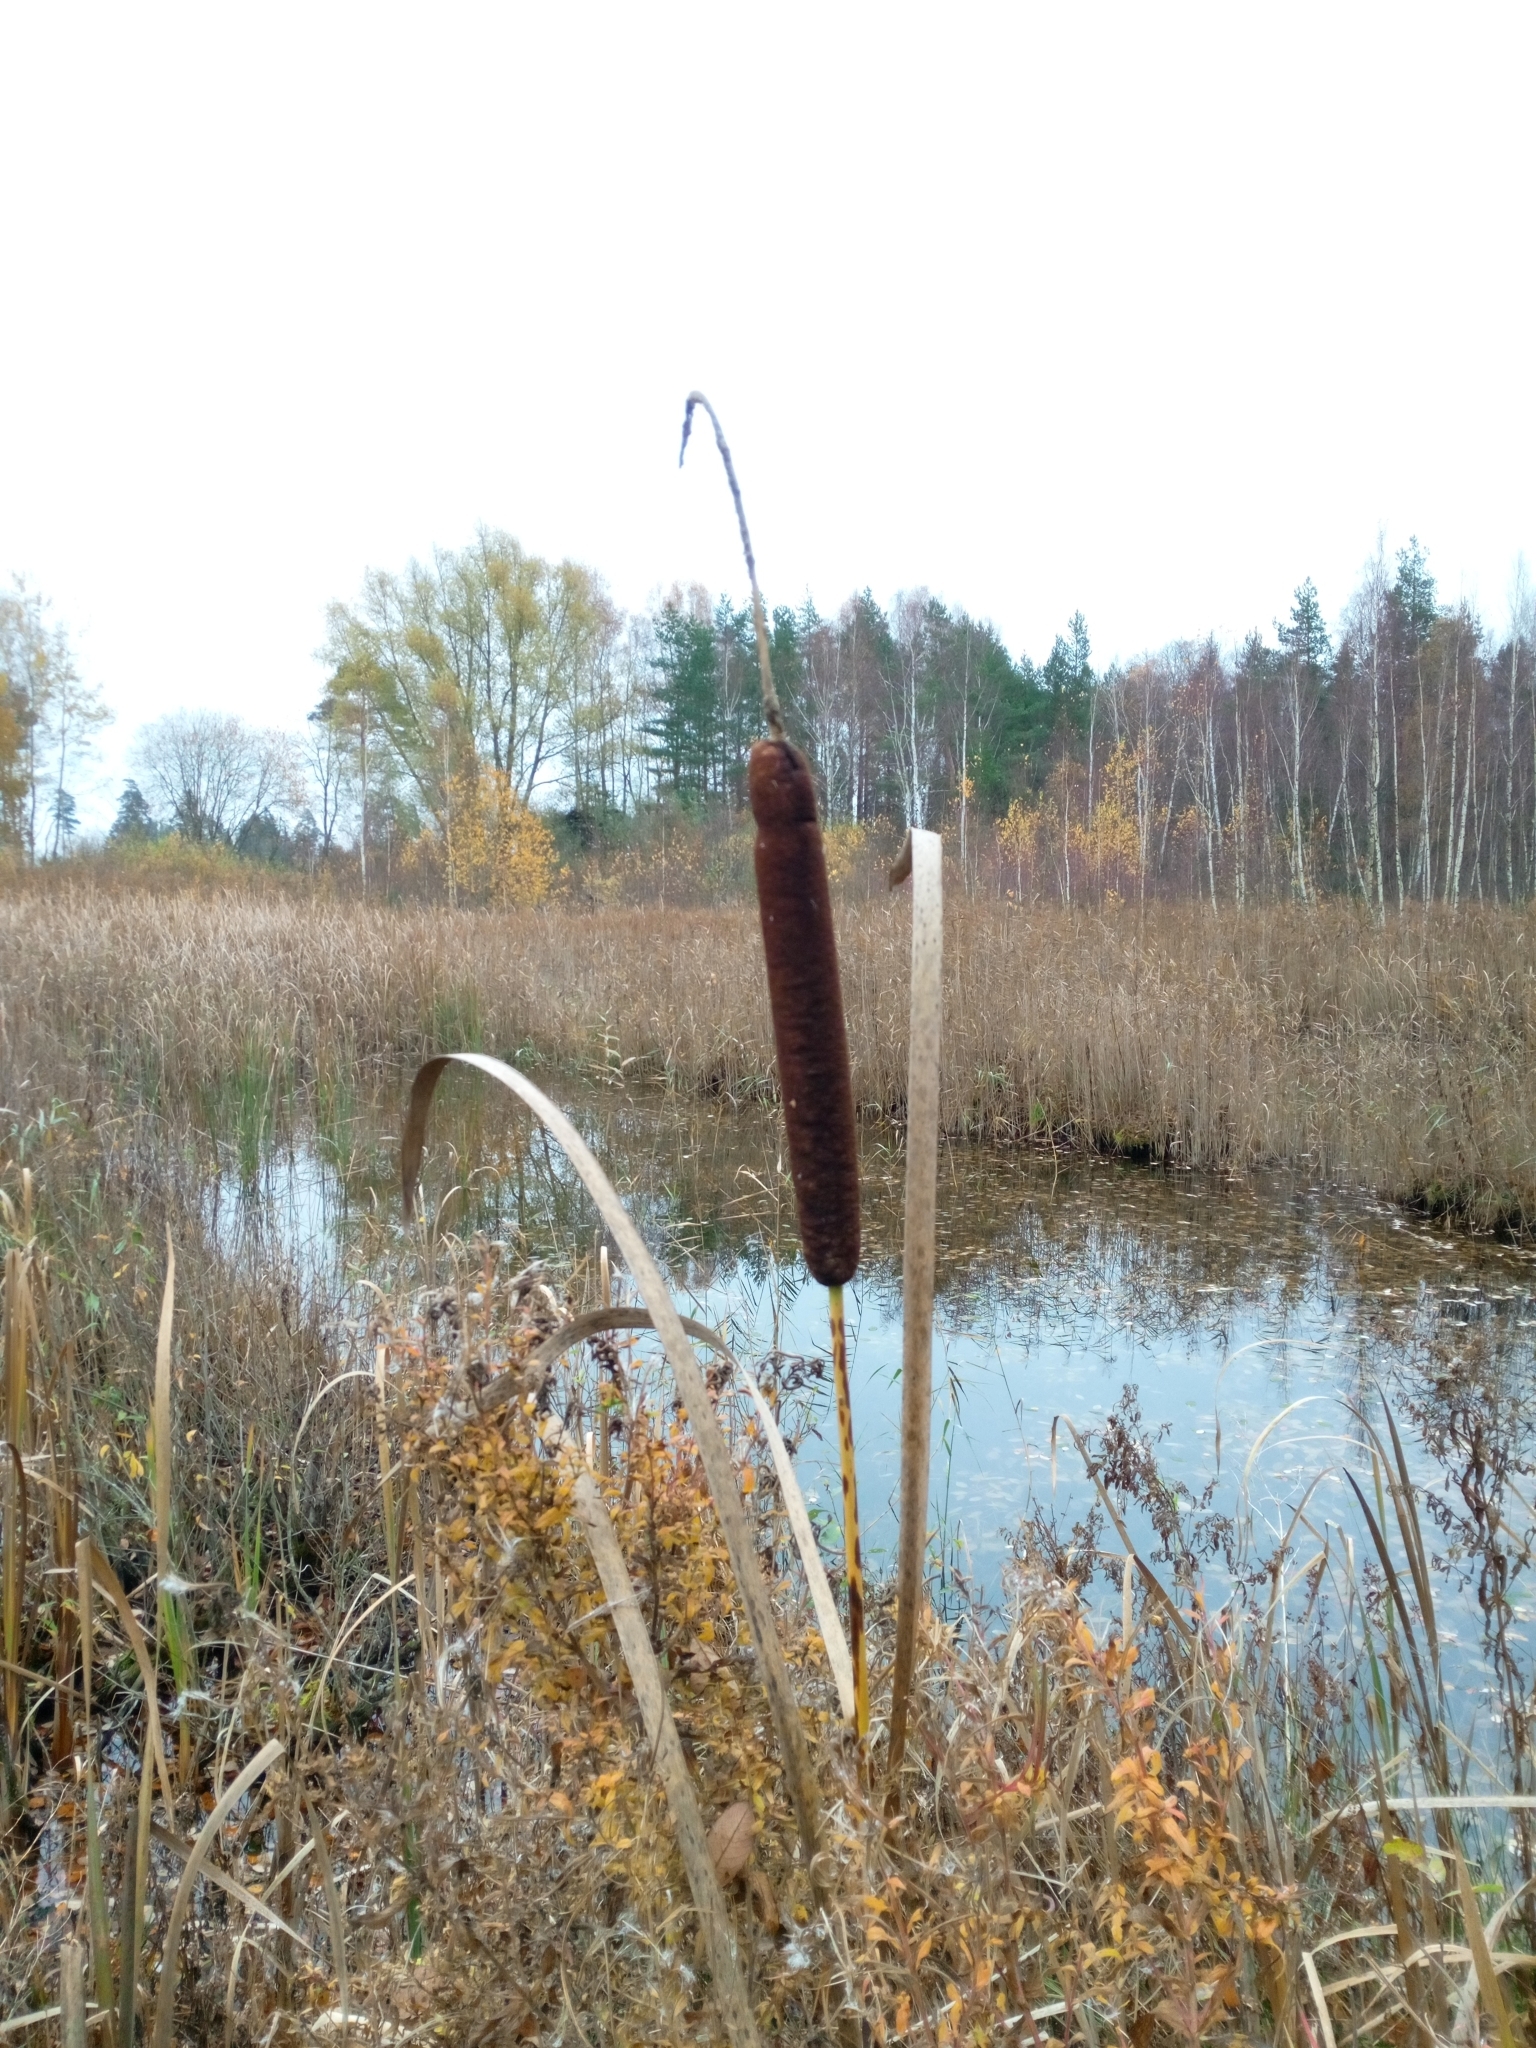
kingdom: Plantae
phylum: Tracheophyta
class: Liliopsida
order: Poales
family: Typhaceae
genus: Typha
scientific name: Typha latifolia
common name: Broadleaf cattail
